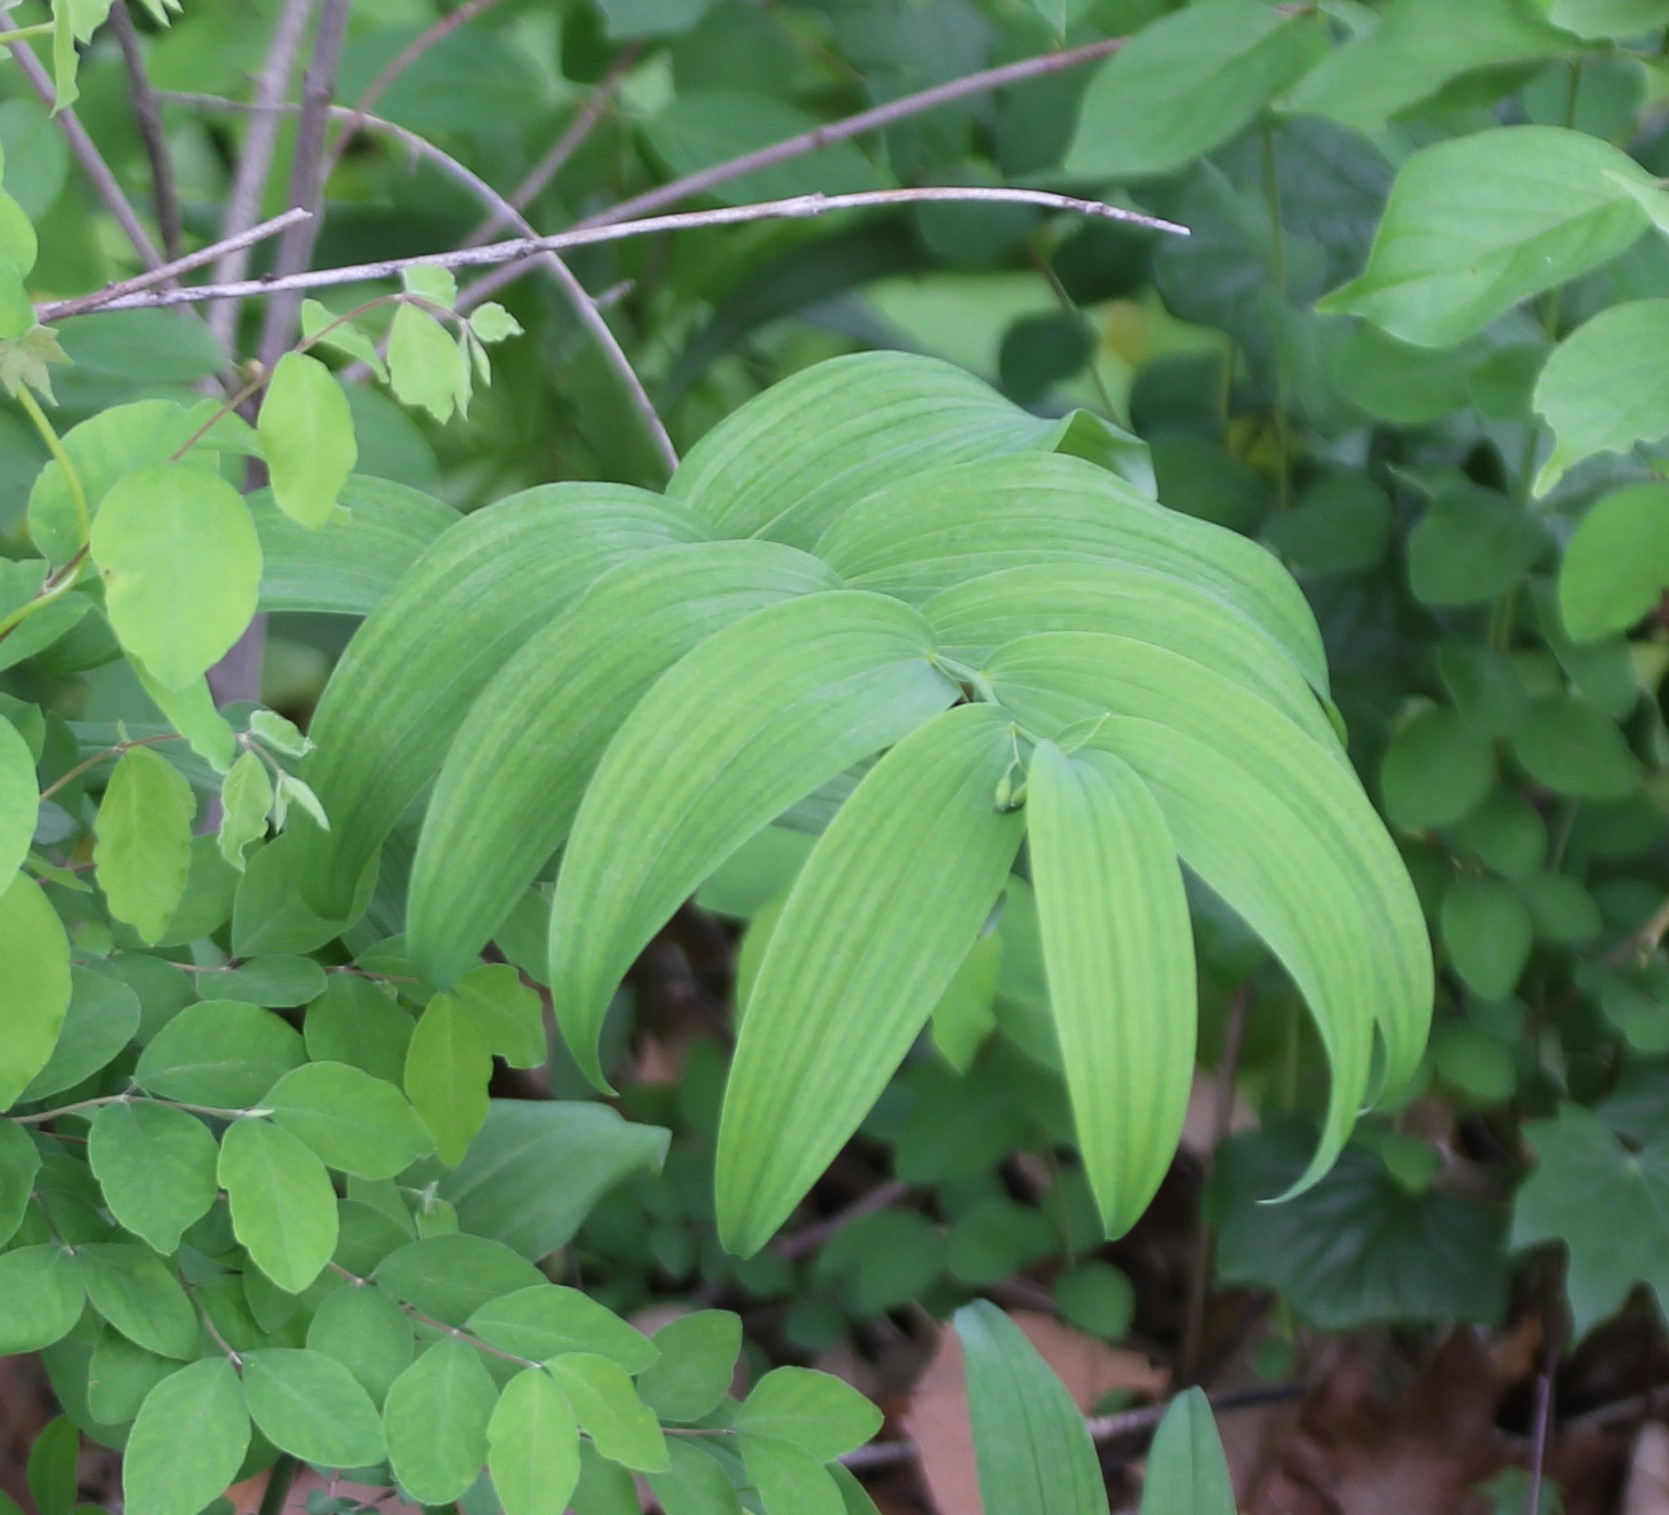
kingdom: Plantae
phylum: Tracheophyta
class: Liliopsida
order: Asparagales
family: Asparagaceae
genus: Polygonatum
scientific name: Polygonatum biflorum
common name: American solomon's-seal
